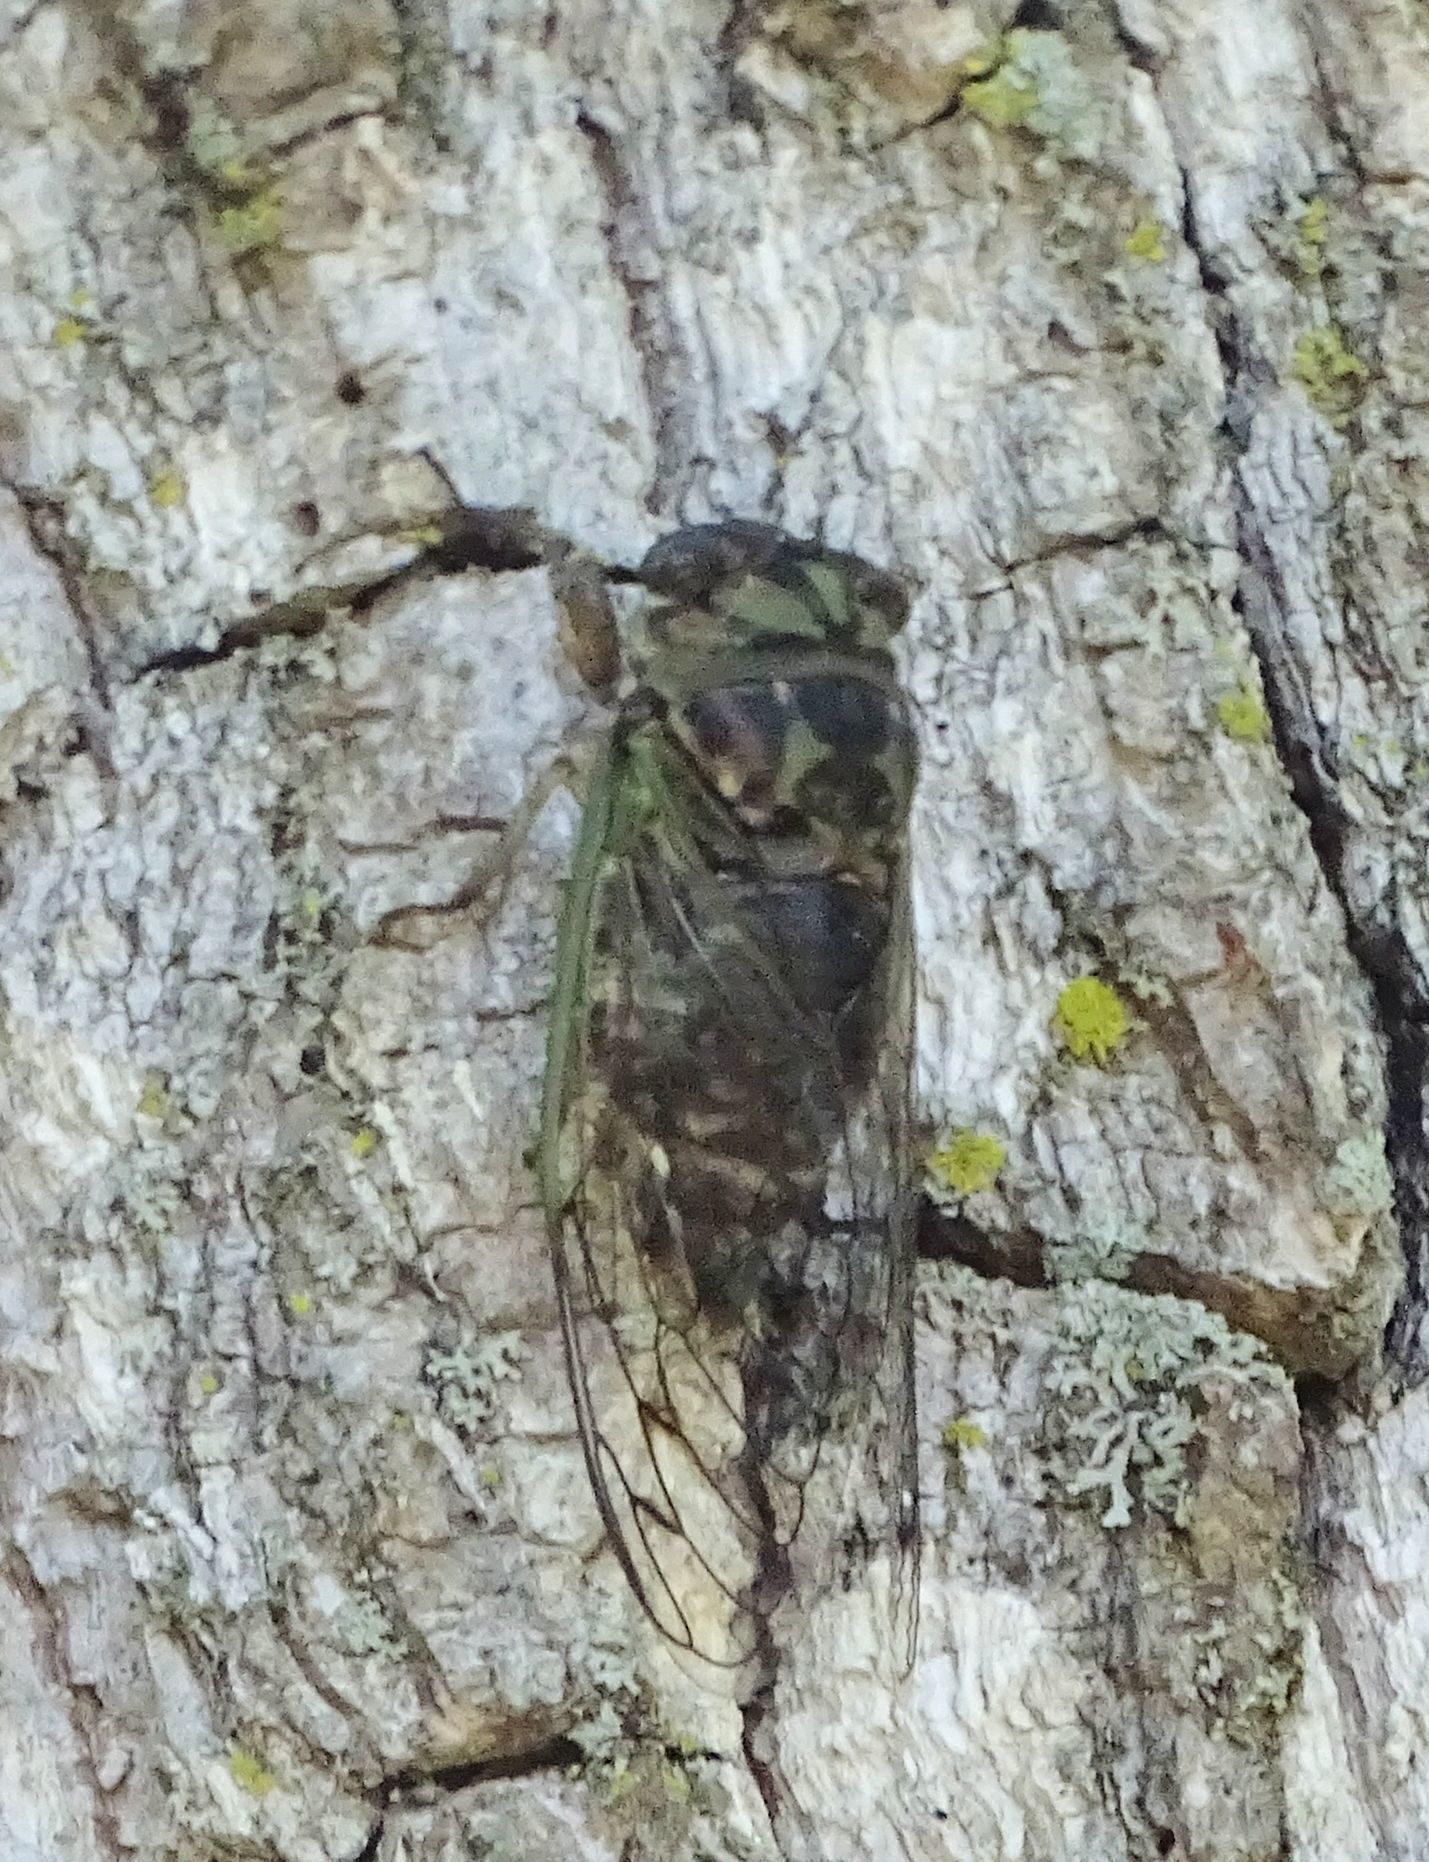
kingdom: Animalia
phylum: Arthropoda
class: Insecta
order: Hemiptera
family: Cicadidae
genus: Neotibicen
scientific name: Neotibicen canicularis
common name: God-day cicada
